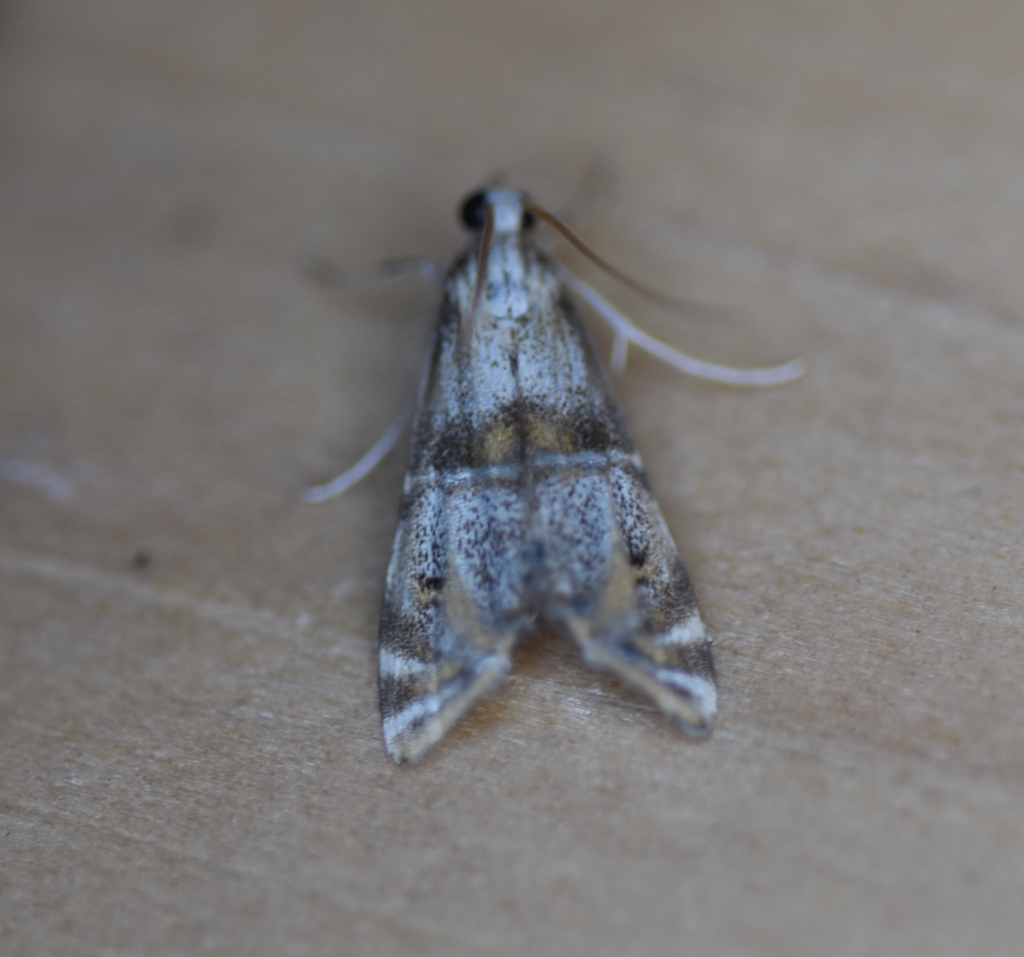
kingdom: Animalia
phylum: Arthropoda
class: Insecta
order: Lepidoptera
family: Crambidae
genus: Petrophila
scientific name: Petrophila bifascialis
